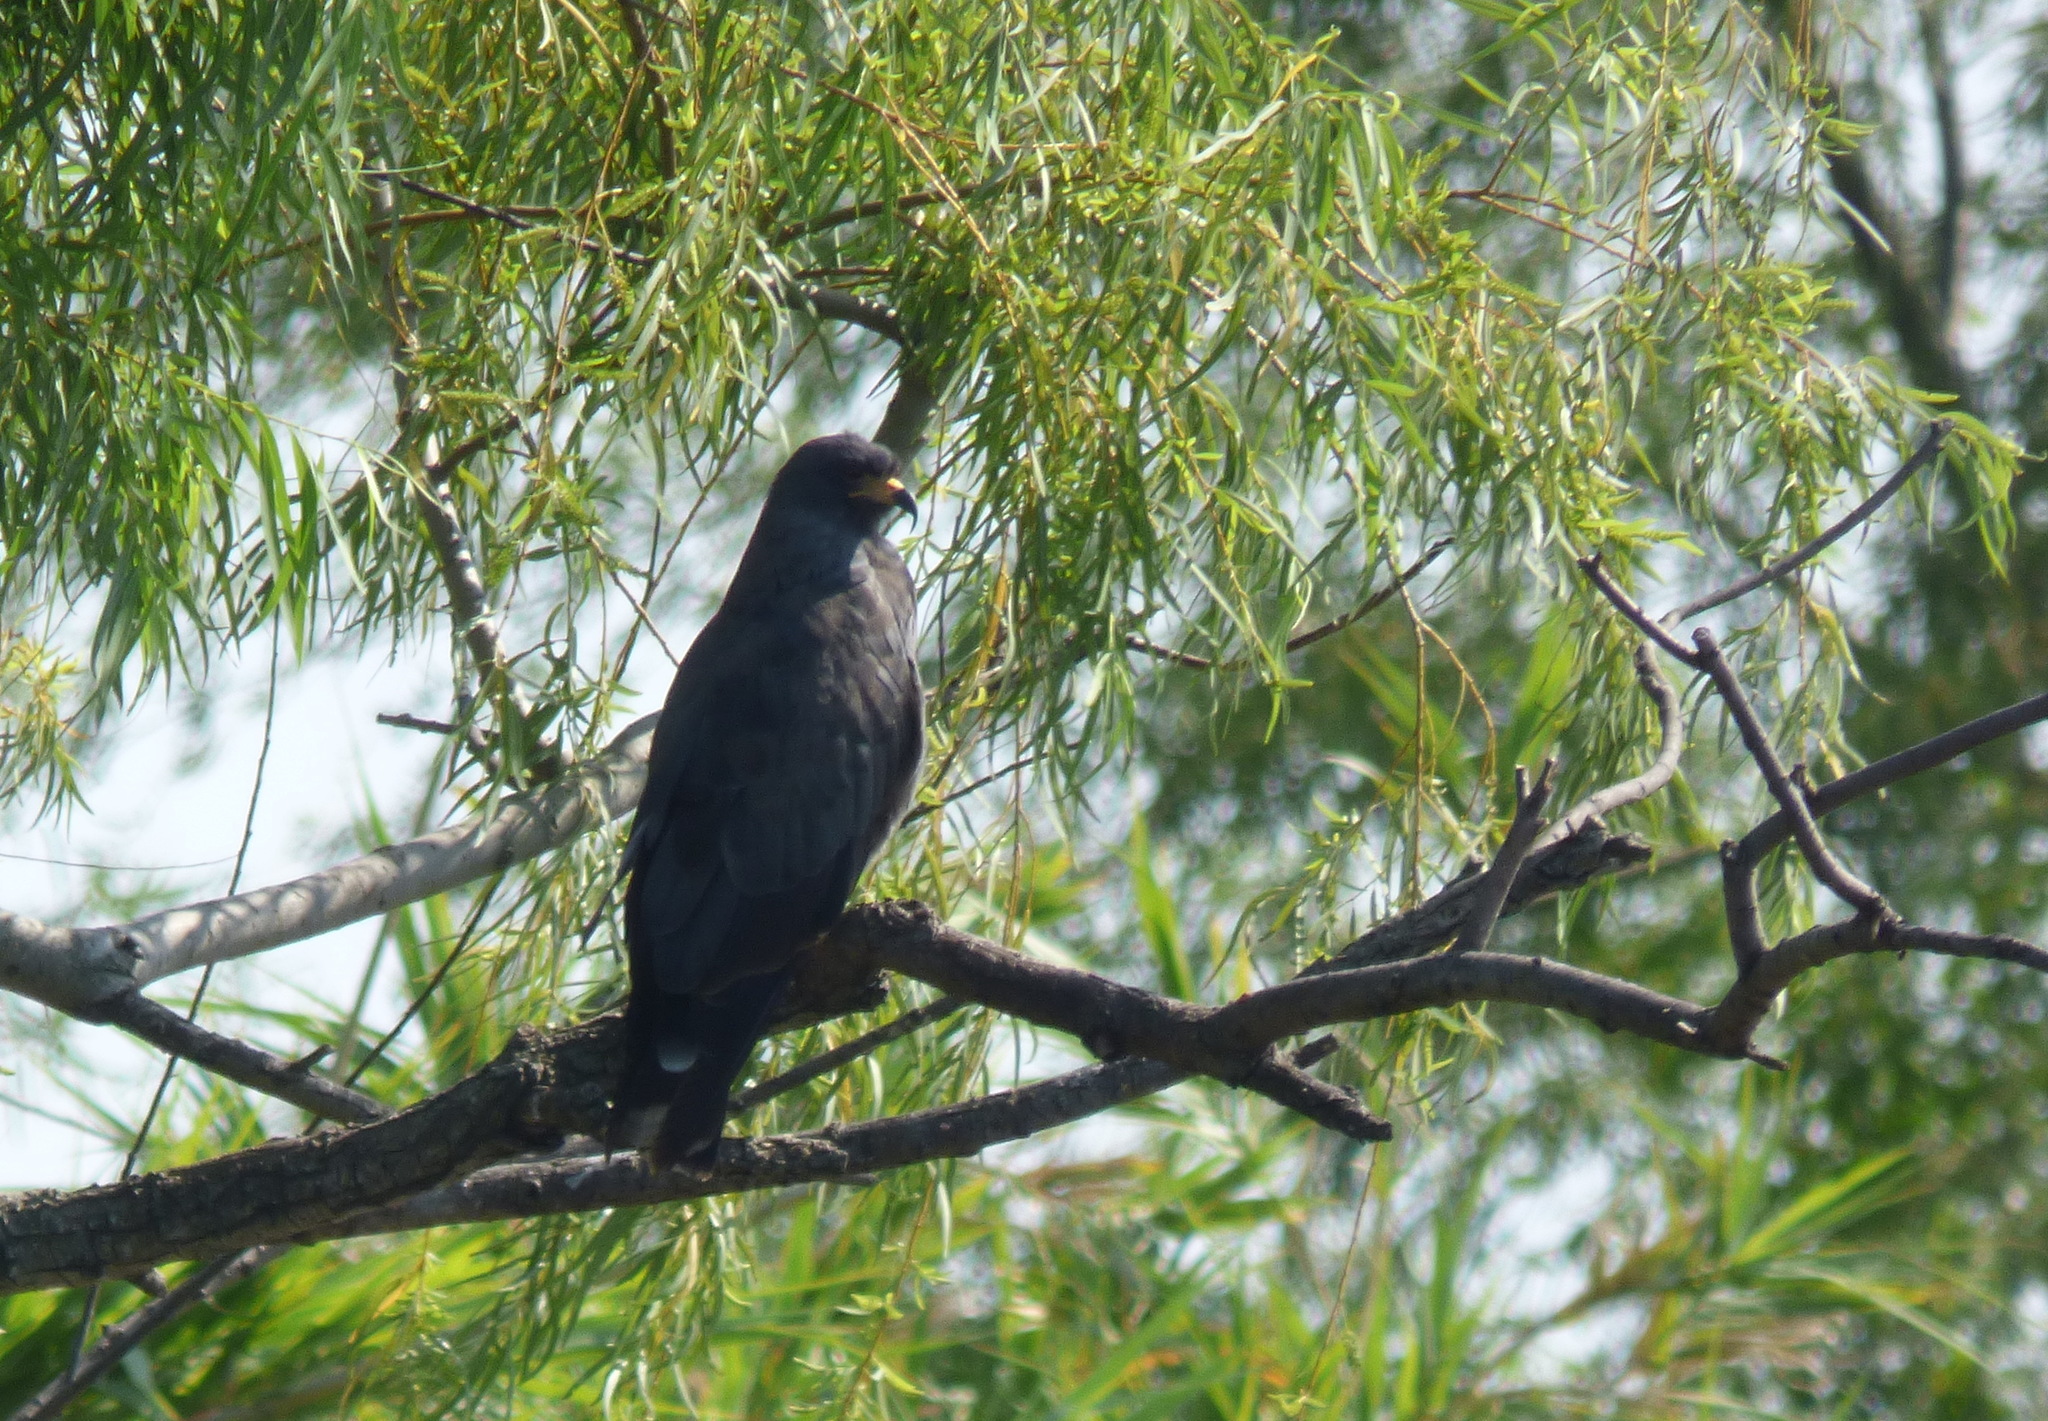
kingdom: Animalia
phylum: Chordata
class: Aves
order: Accipitriformes
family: Accipitridae
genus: Rostrhamus
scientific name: Rostrhamus sociabilis
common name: Snail kite
